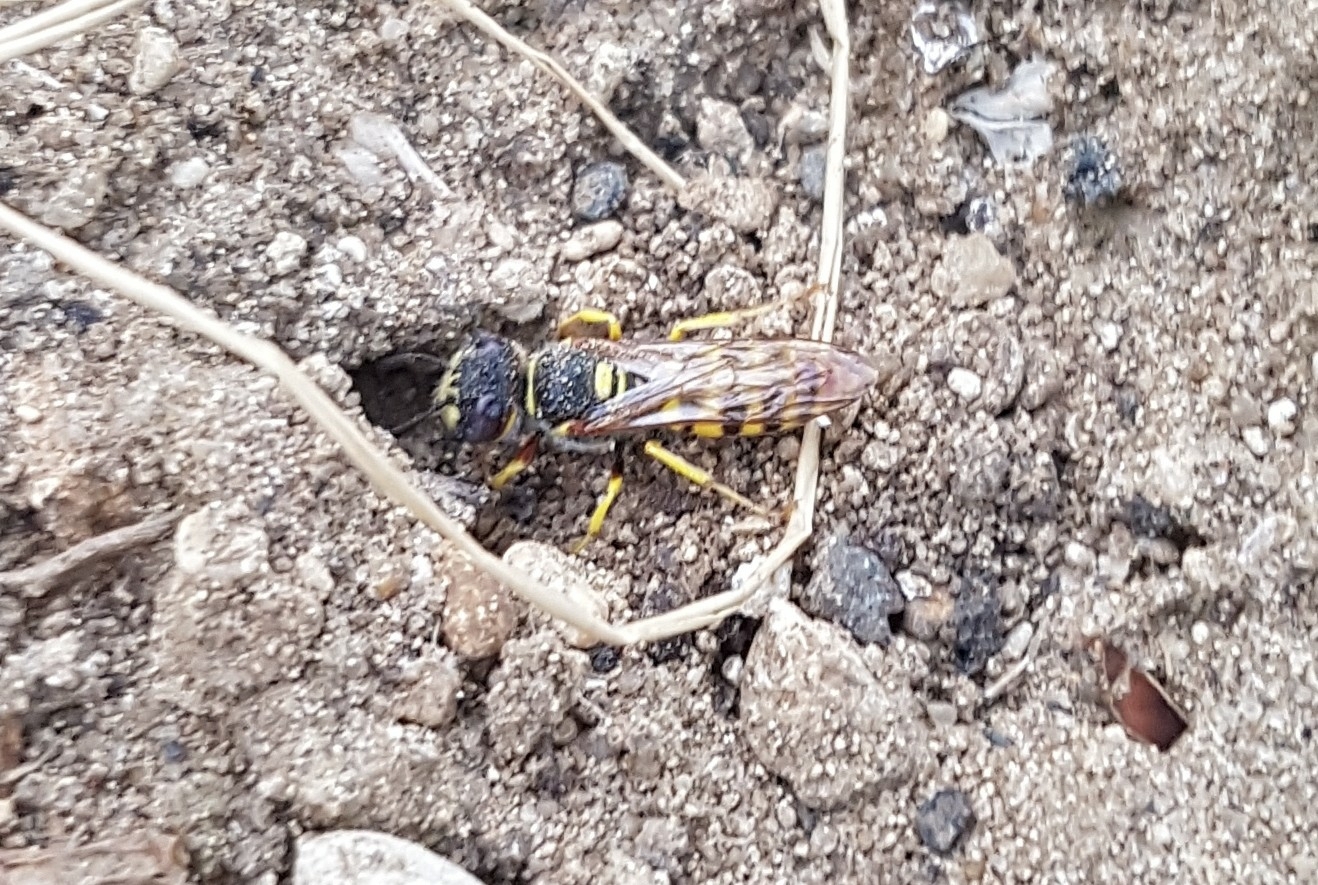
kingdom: Animalia
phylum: Arthropoda
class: Insecta
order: Hymenoptera
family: Crabronidae
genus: Philanthus
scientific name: Philanthus triangulum
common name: Bee wolf
